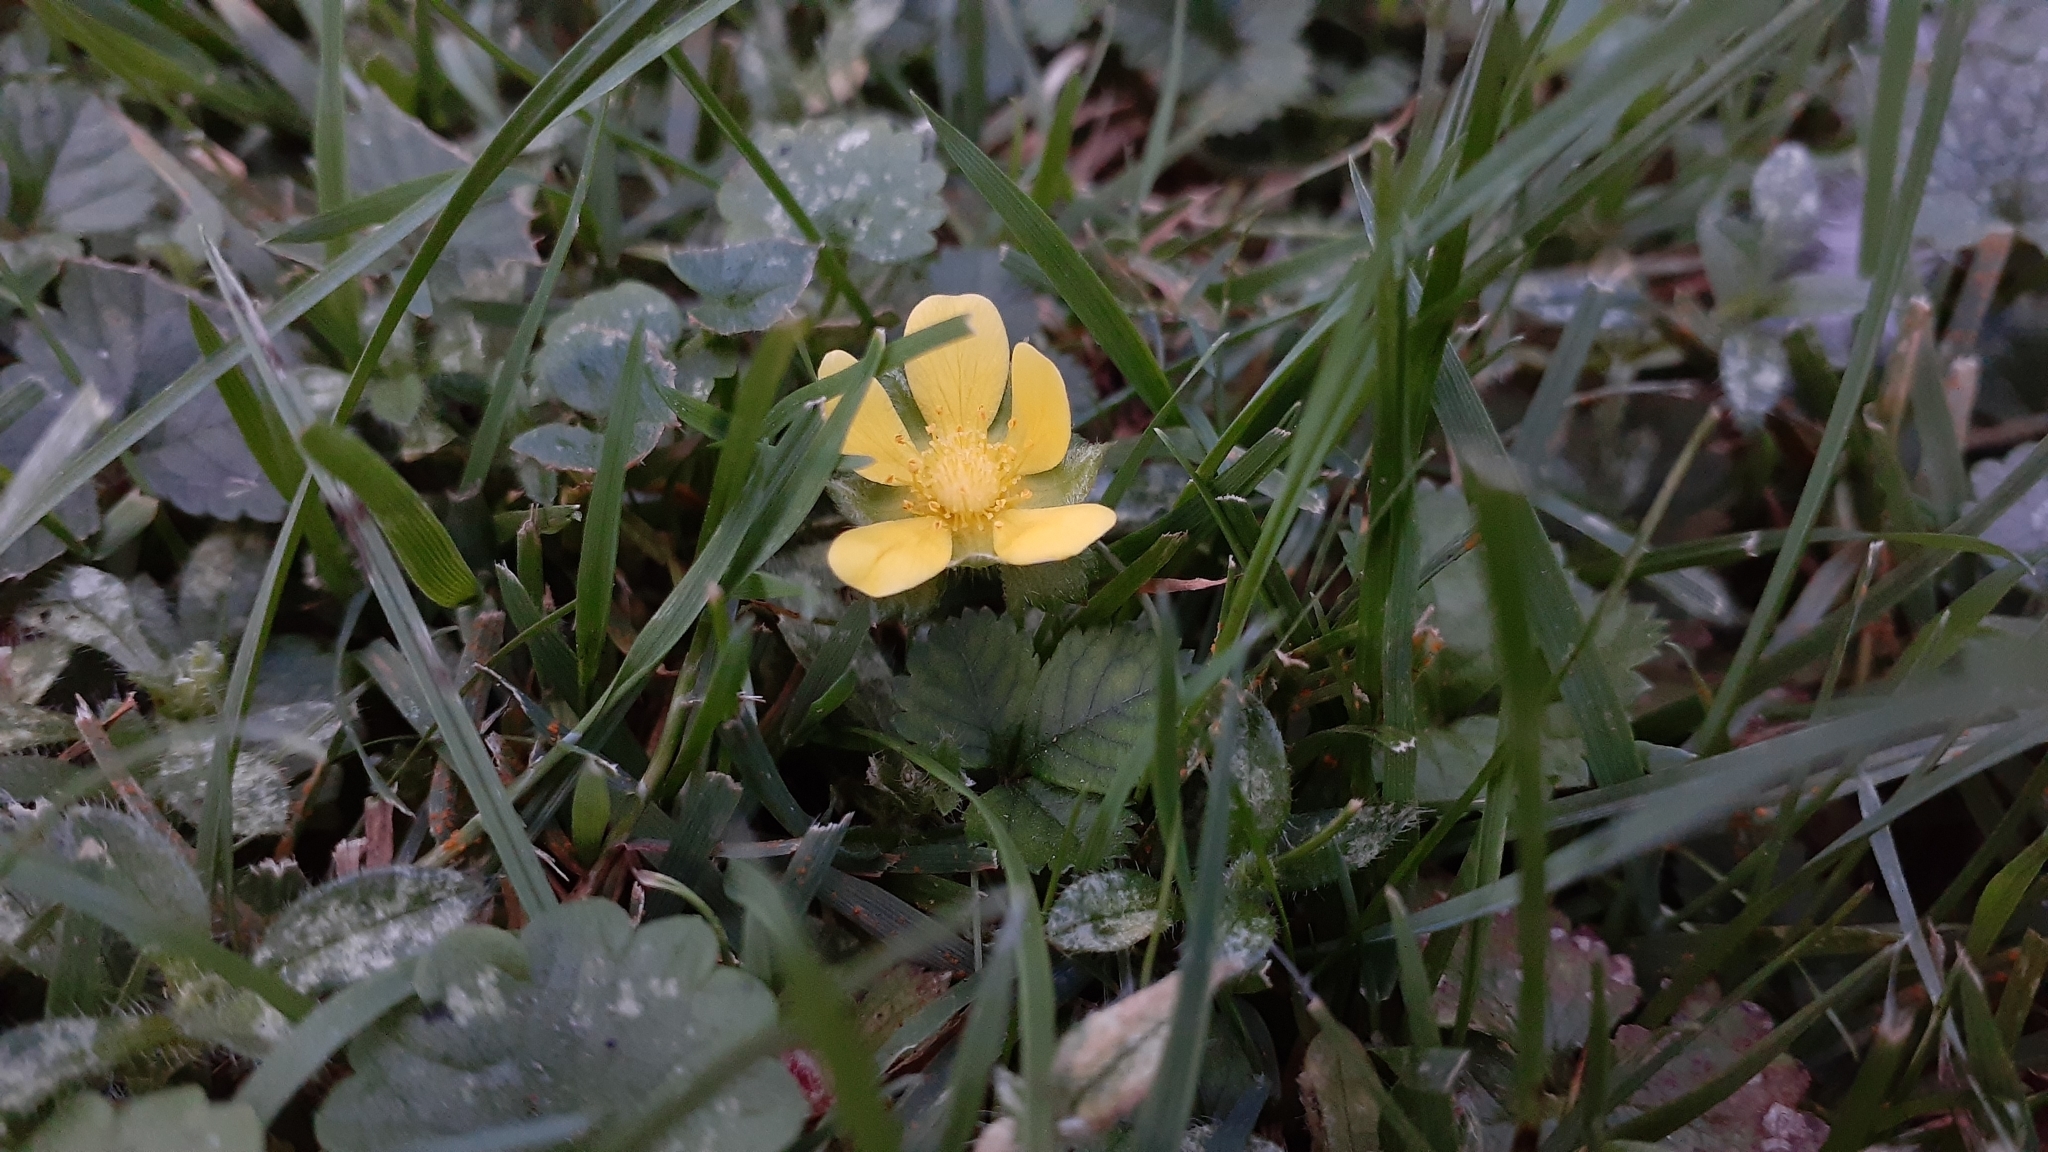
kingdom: Plantae
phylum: Tracheophyta
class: Magnoliopsida
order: Rosales
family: Rosaceae
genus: Potentilla
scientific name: Potentilla indica
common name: Yellow-flowered strawberry
